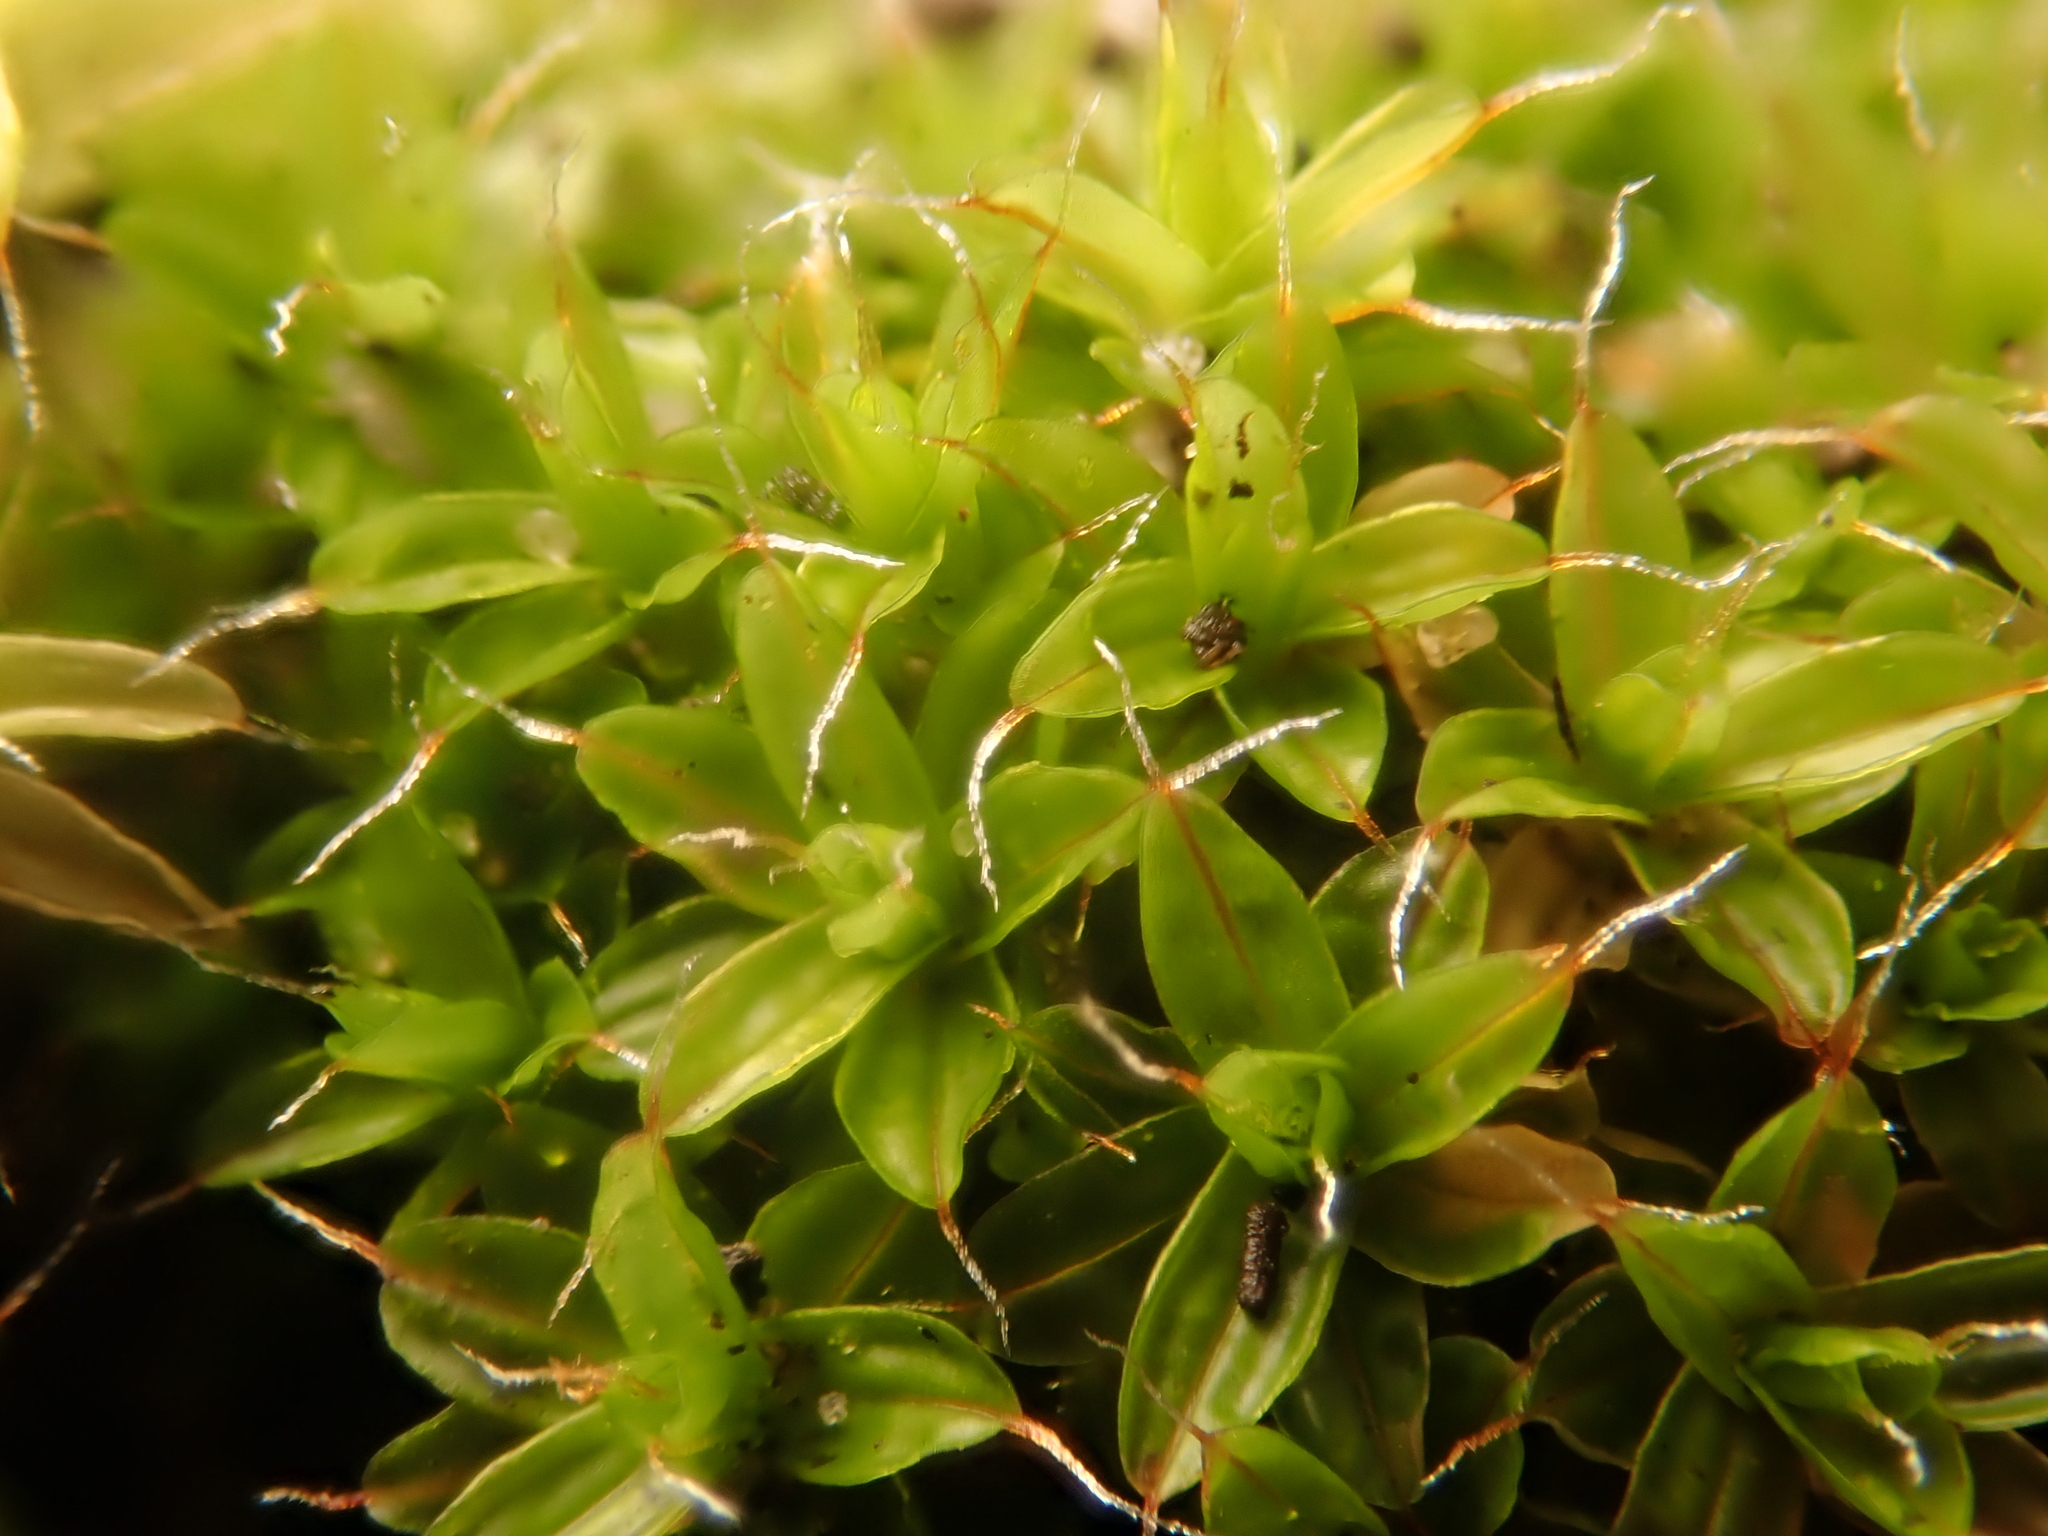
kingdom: Plantae
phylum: Bryophyta
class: Bryopsida
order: Pottiales
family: Pottiaceae
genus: Syntrichia
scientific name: Syntrichia ruralis
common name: Sidewalk screw moss
